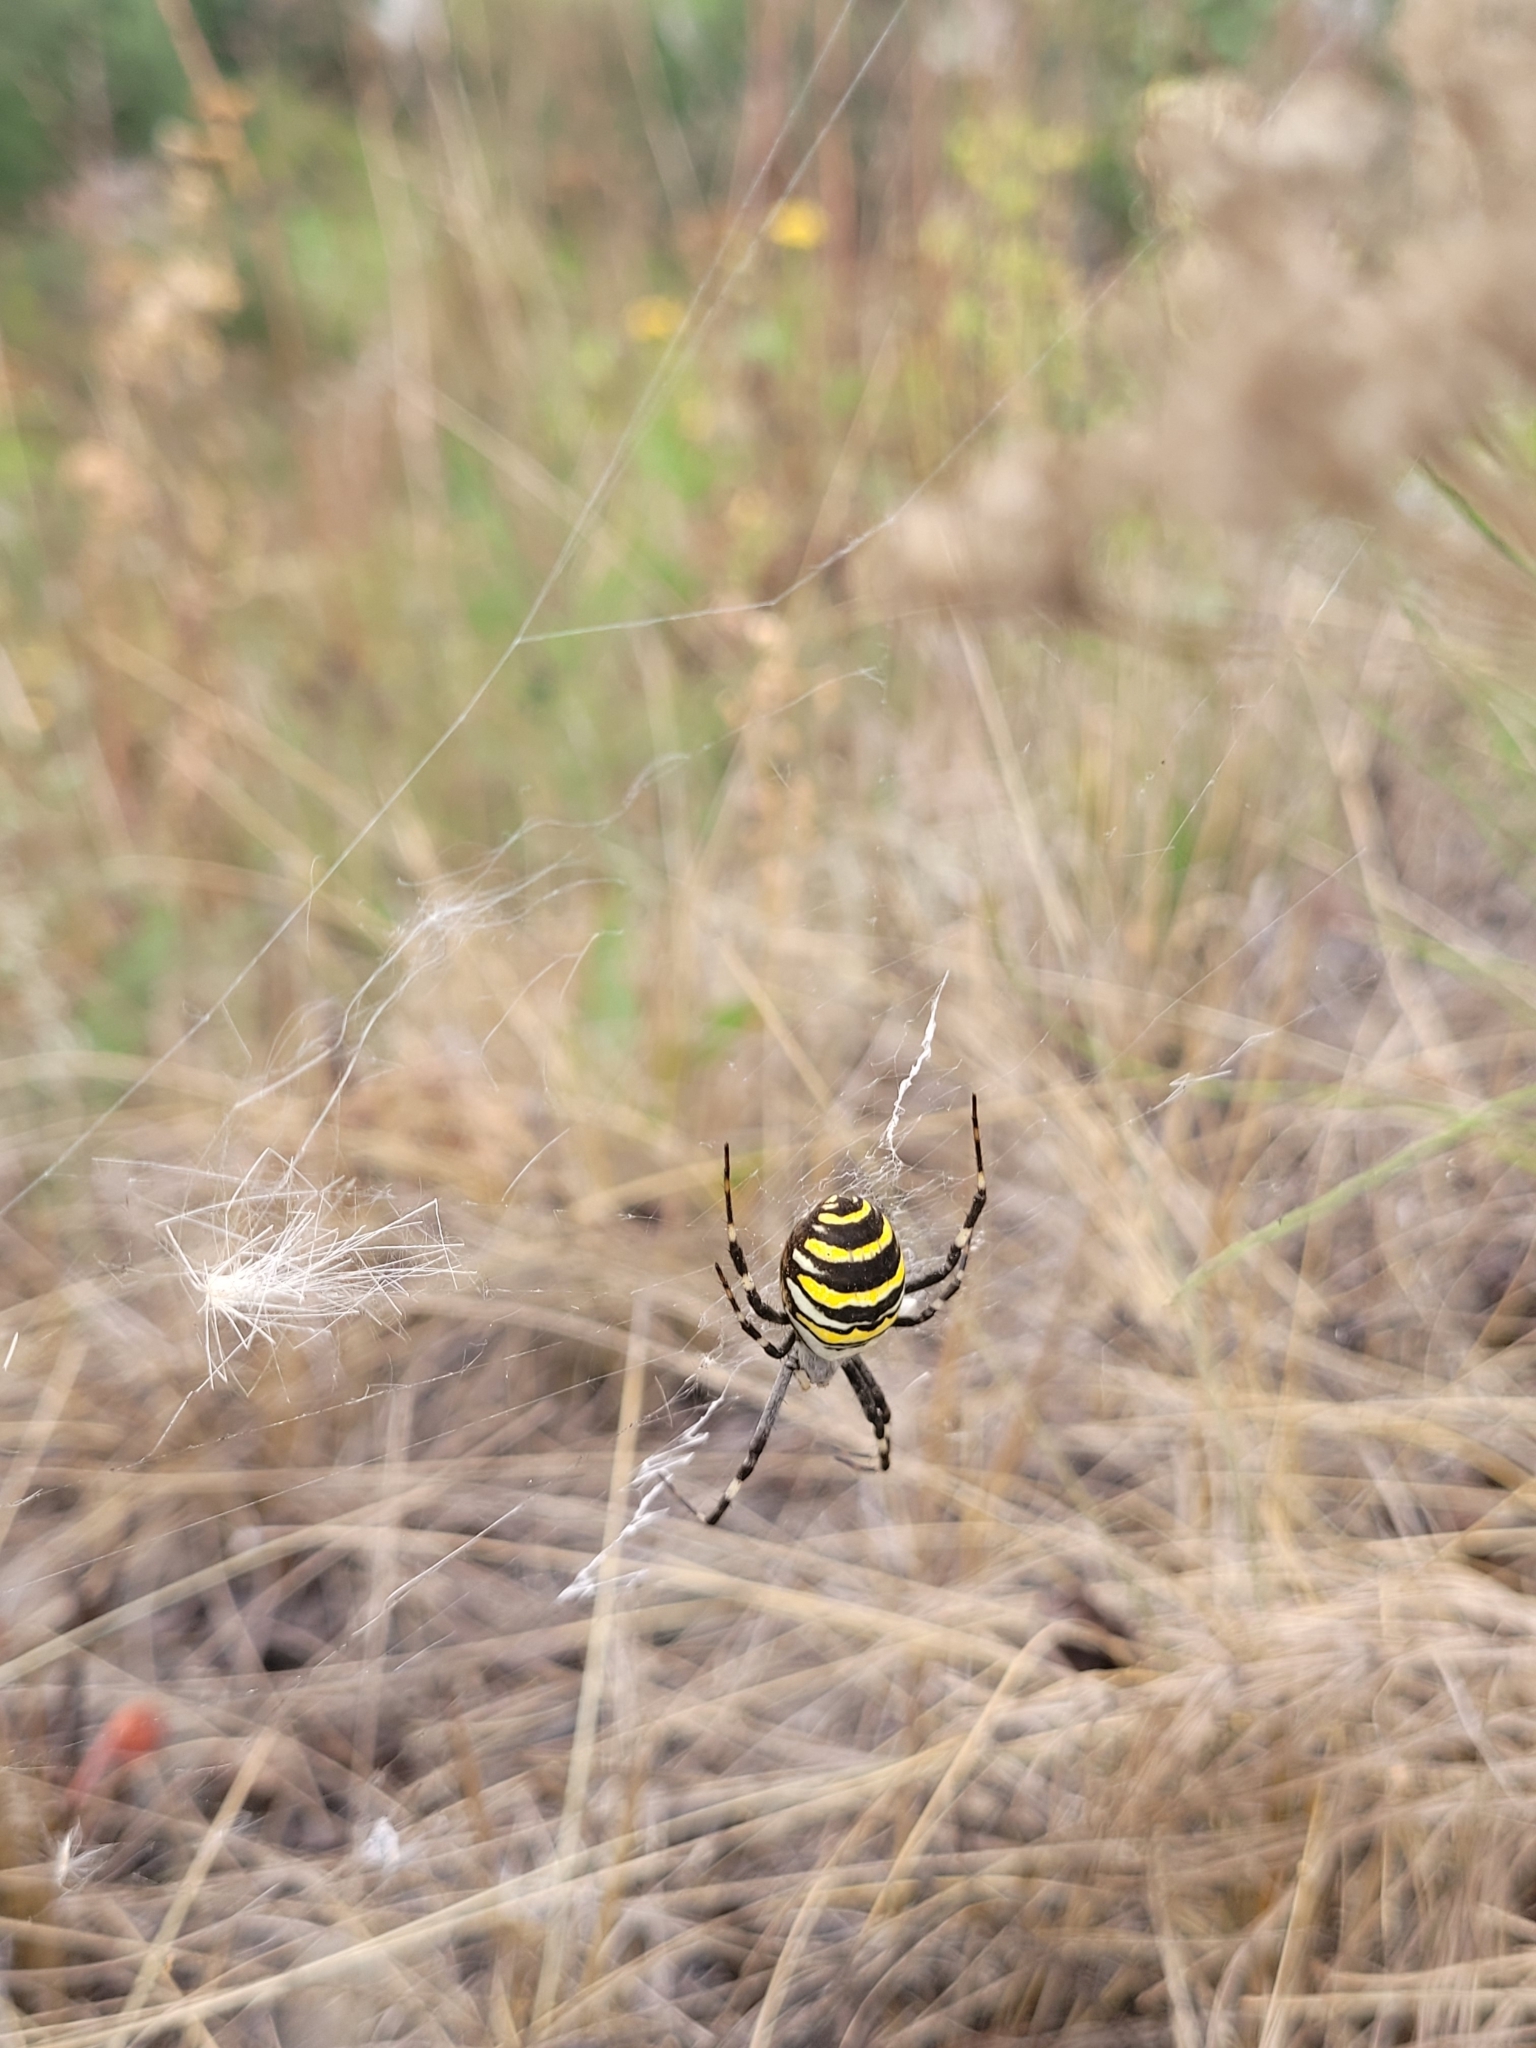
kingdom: Animalia
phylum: Arthropoda
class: Arachnida
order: Araneae
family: Araneidae
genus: Argiope
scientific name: Argiope bruennichi
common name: Wasp spider
